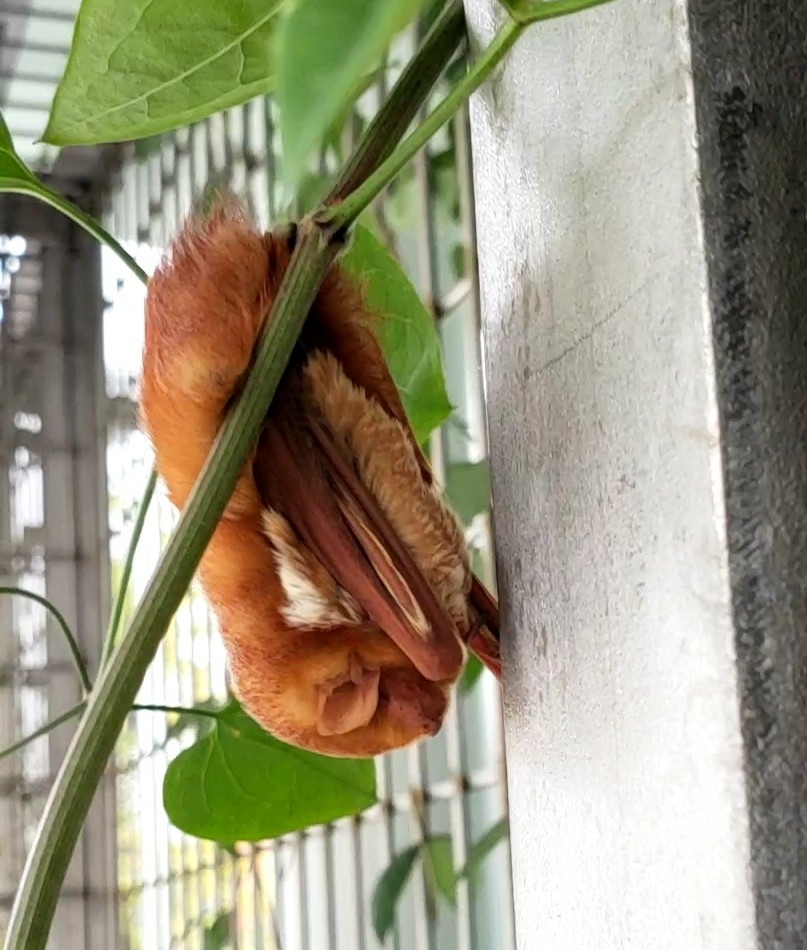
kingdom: Animalia
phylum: Chordata
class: Mammalia
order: Chiroptera
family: Vespertilionidae
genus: Lasiurus
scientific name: Lasiurus borealis
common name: Eastern red bat
